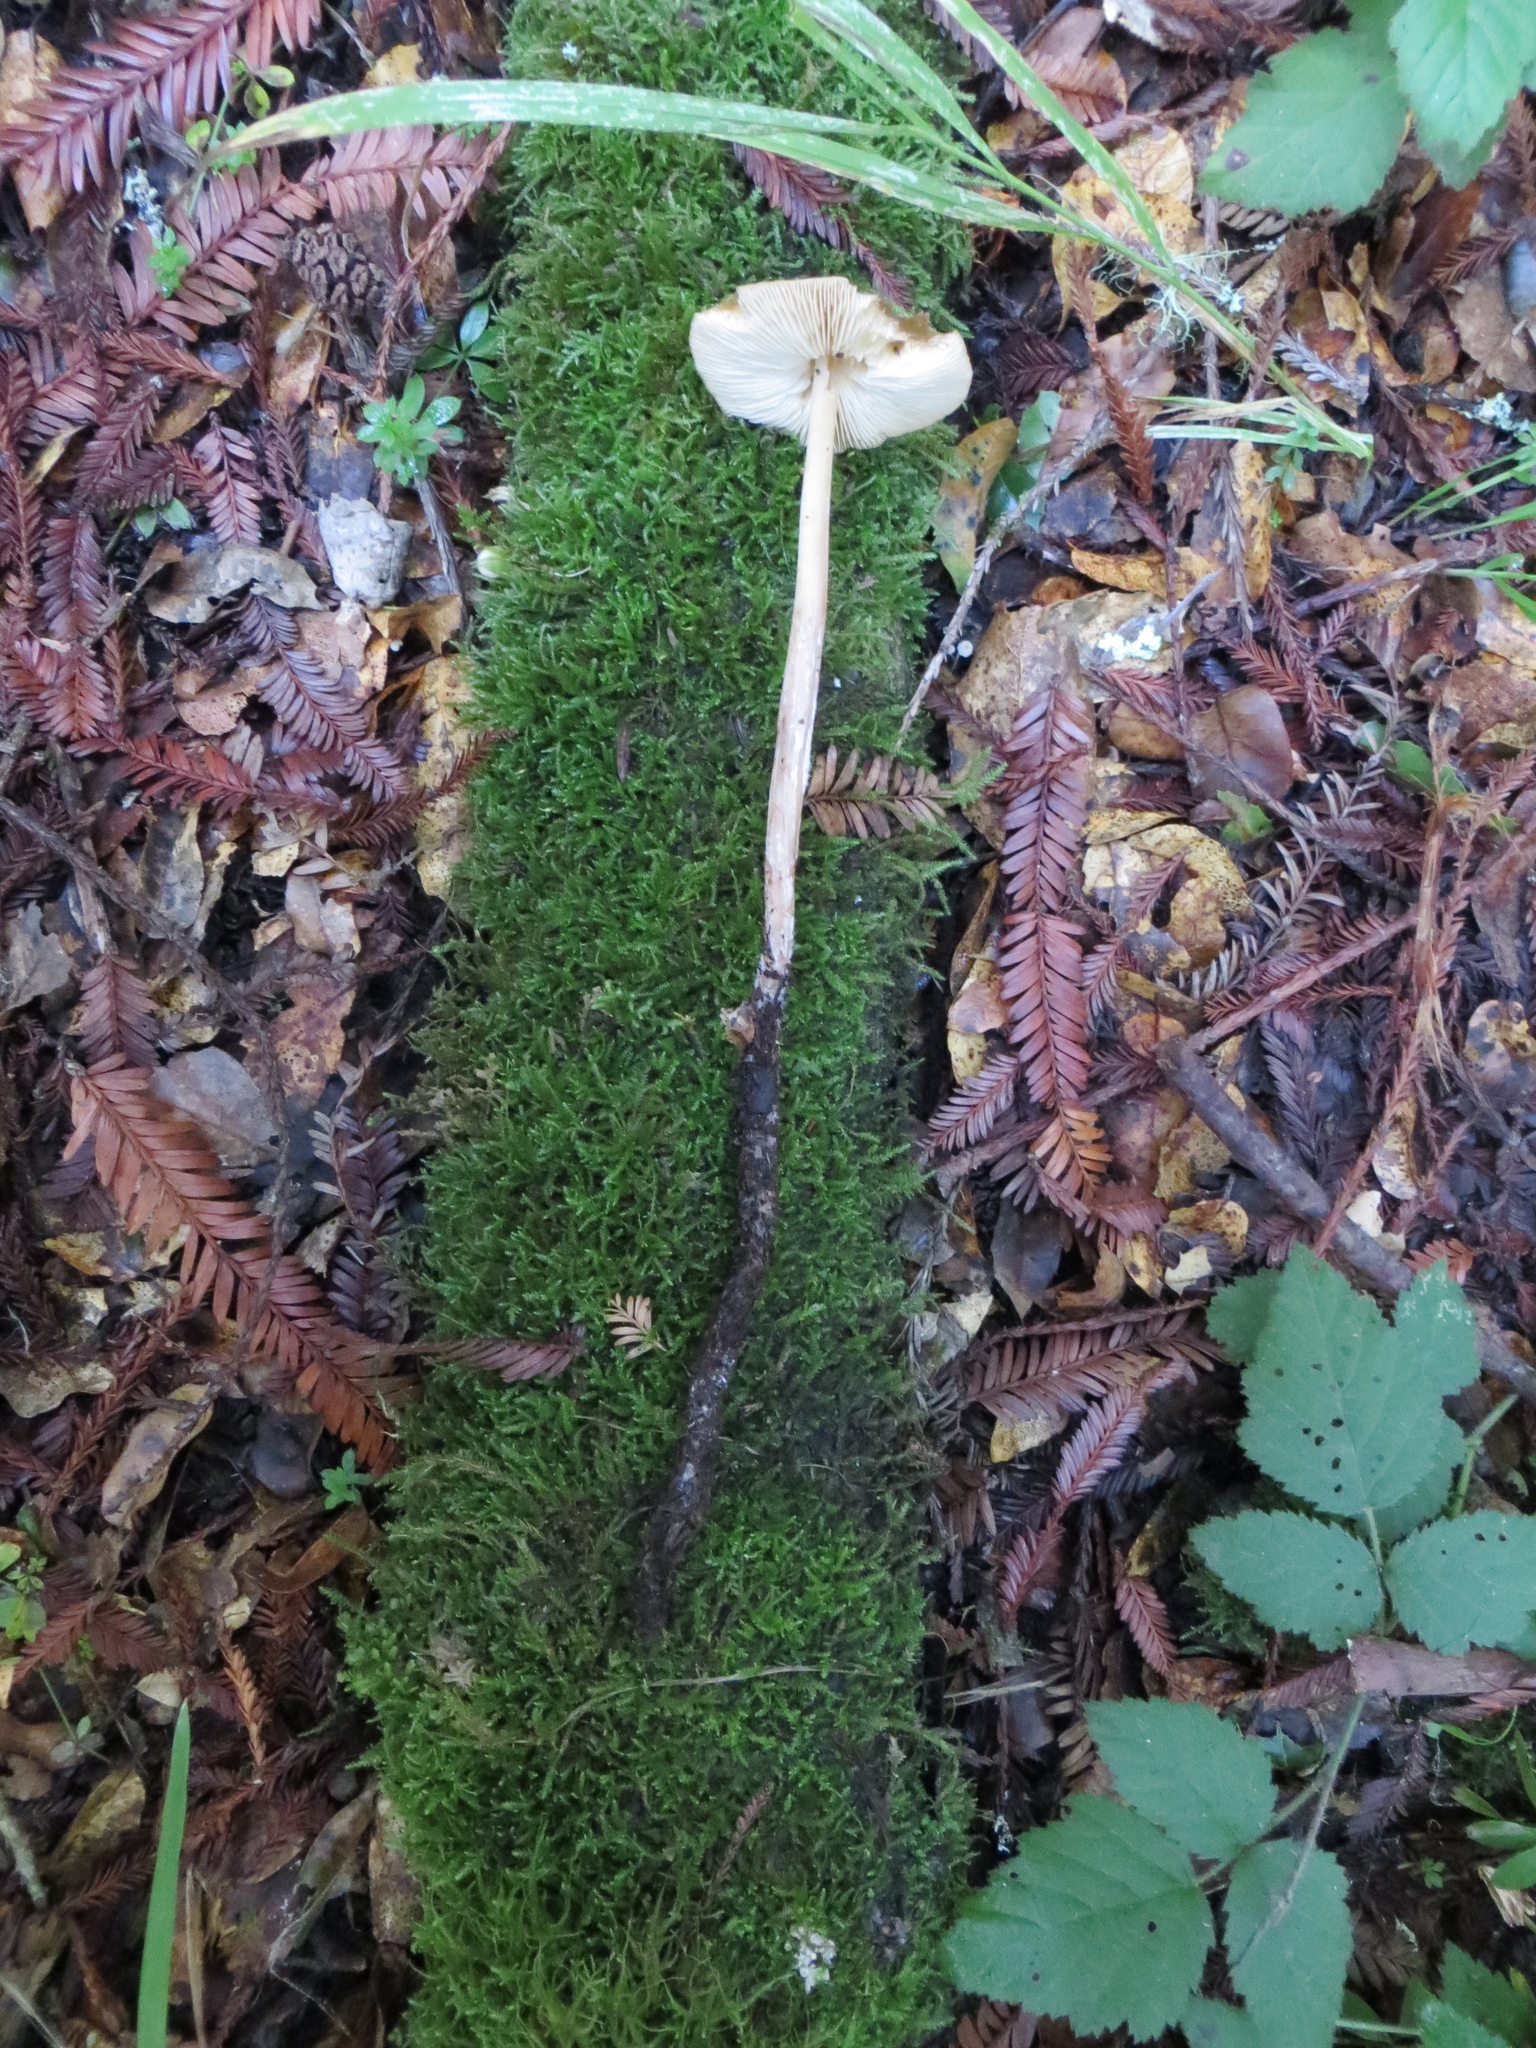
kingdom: Fungi
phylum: Basidiomycota
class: Agaricomycetes
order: Agaricales
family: Tricholomataceae
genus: Caulorhiza
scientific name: Caulorhiza umbonata
